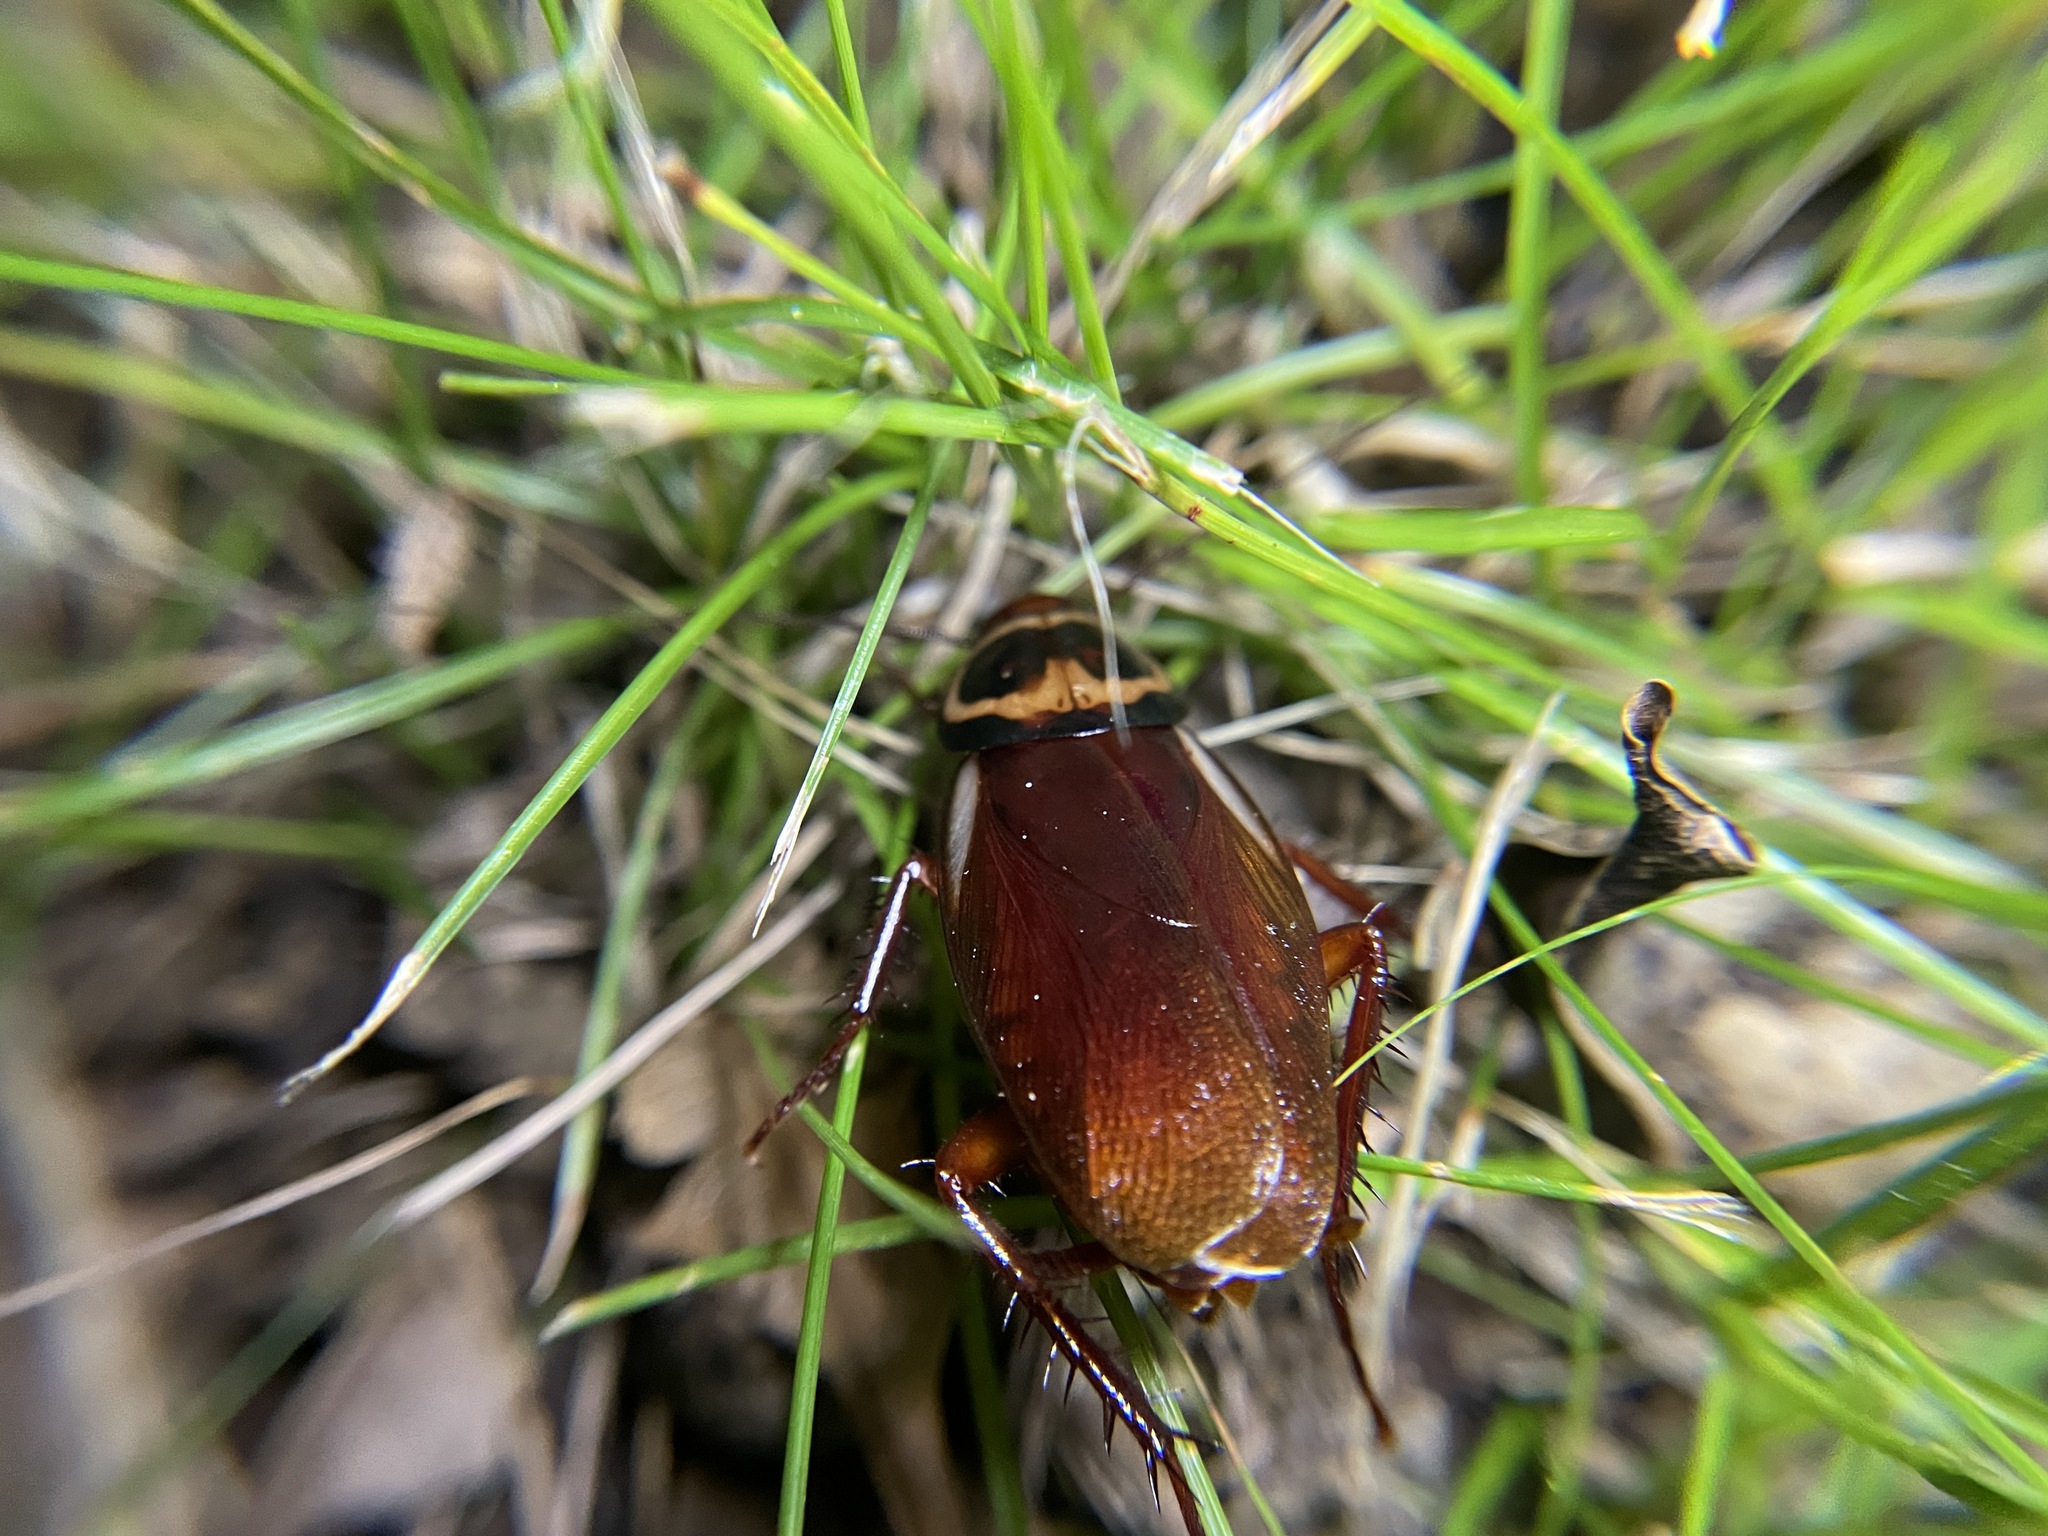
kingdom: Animalia
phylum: Arthropoda
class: Insecta
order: Blattodea
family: Blattidae
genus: Periplaneta
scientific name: Periplaneta australasiae
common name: Australian cockroach
